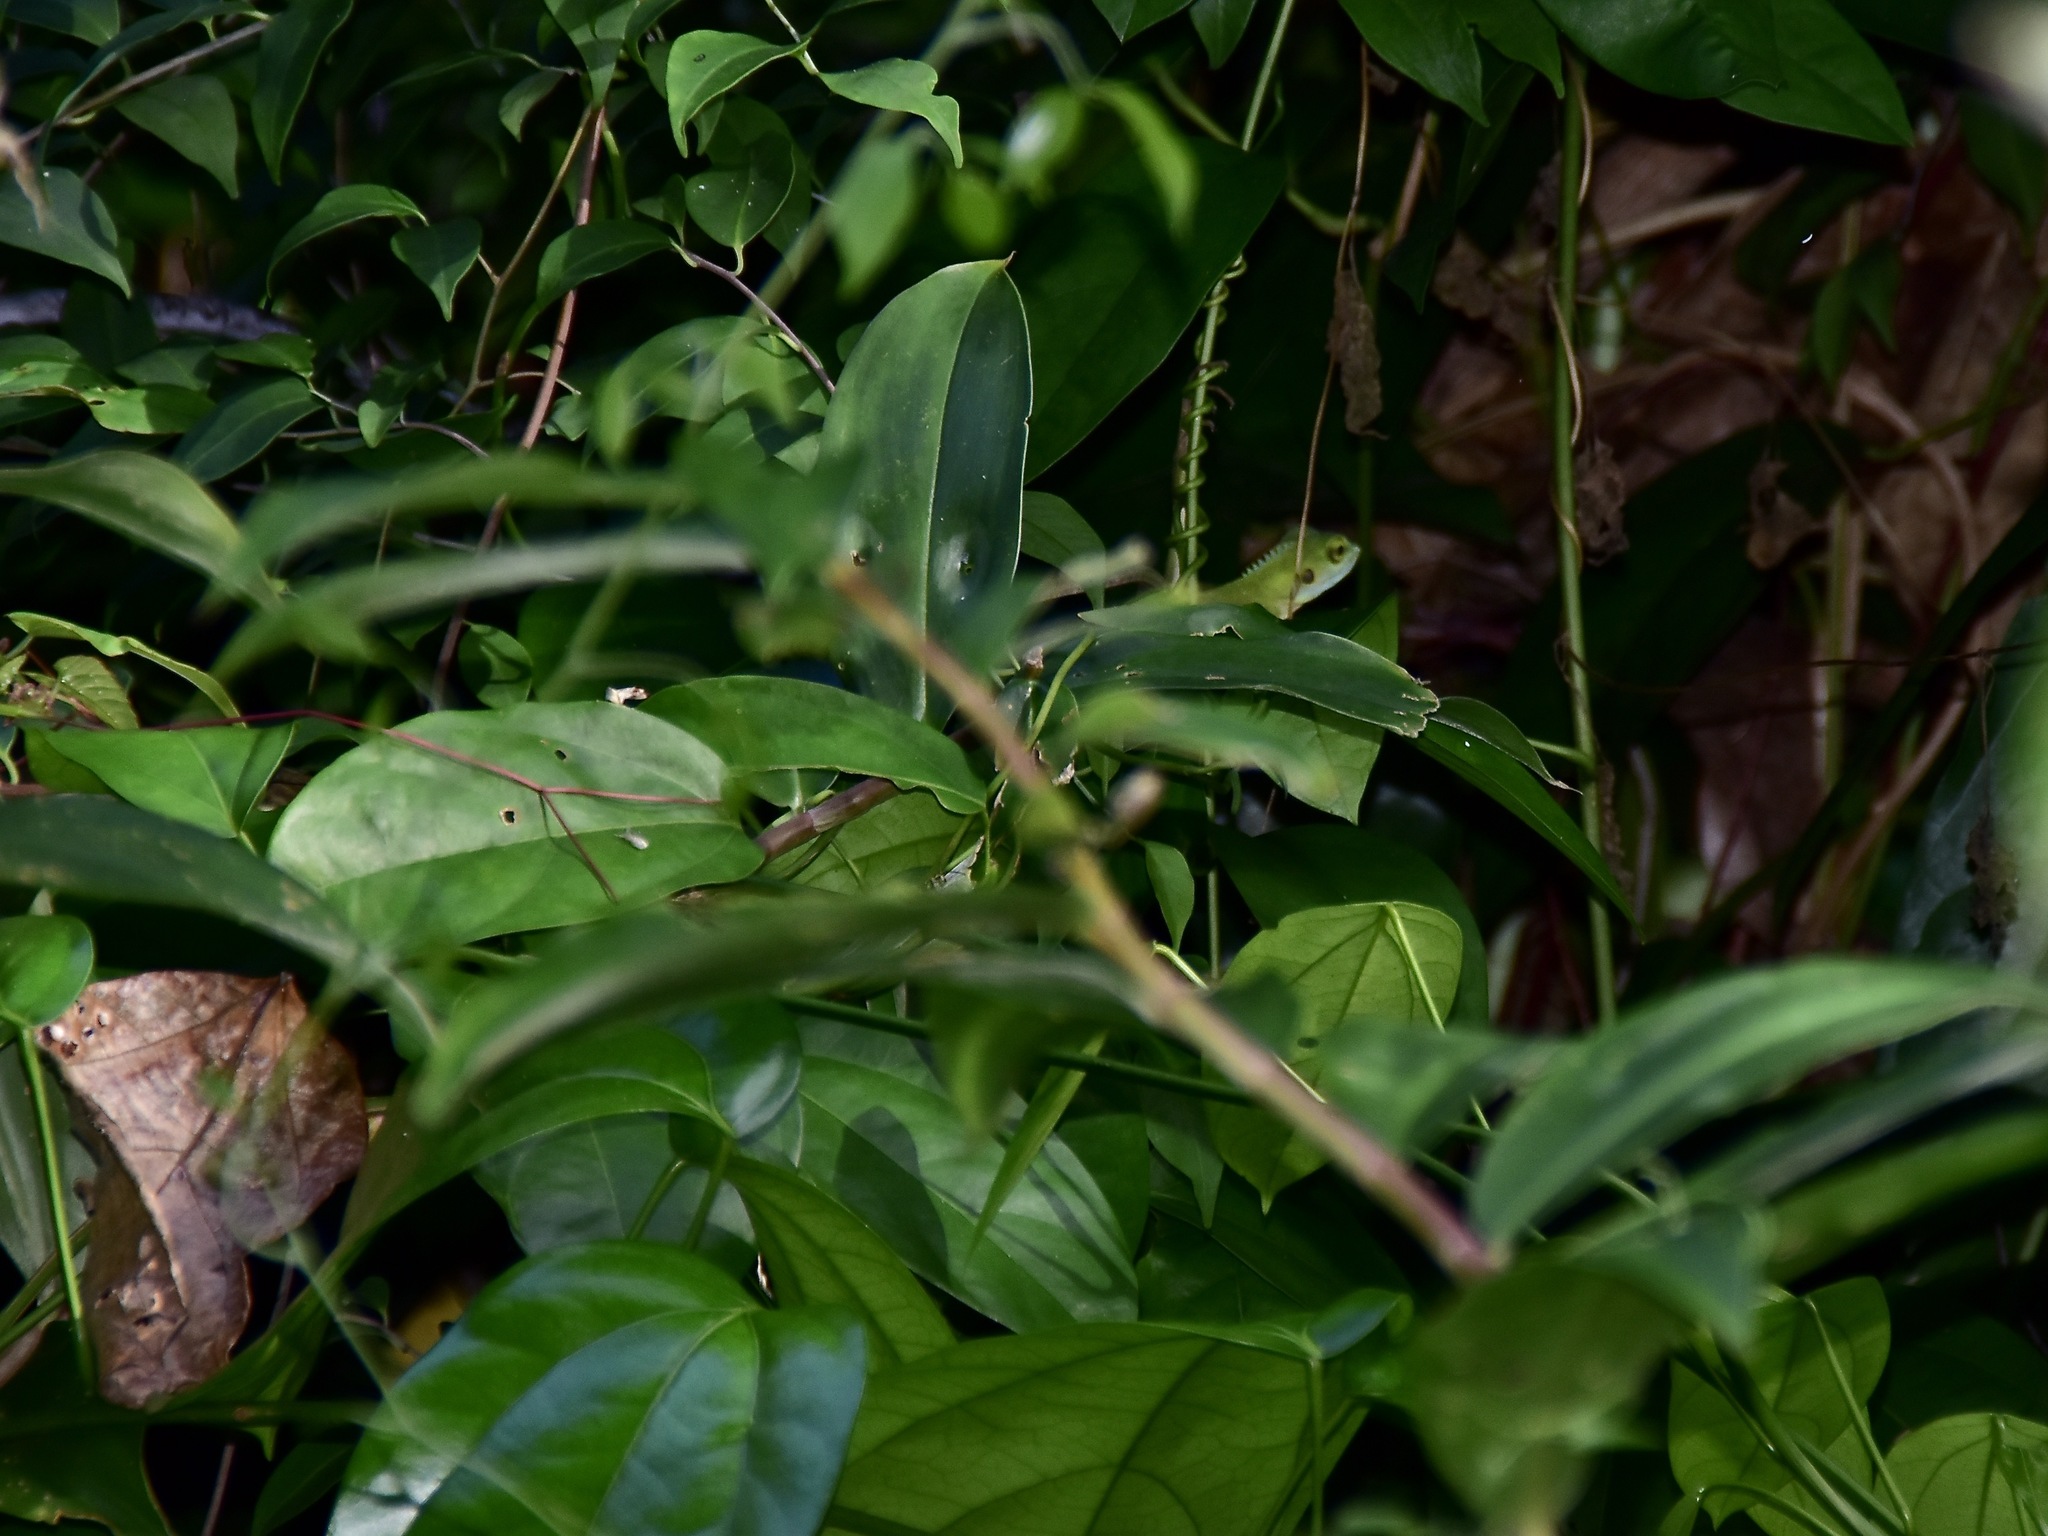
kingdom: Animalia
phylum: Chordata
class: Squamata
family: Agamidae
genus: Bronchocela
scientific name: Bronchocela cristatella
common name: Green crested lizard
